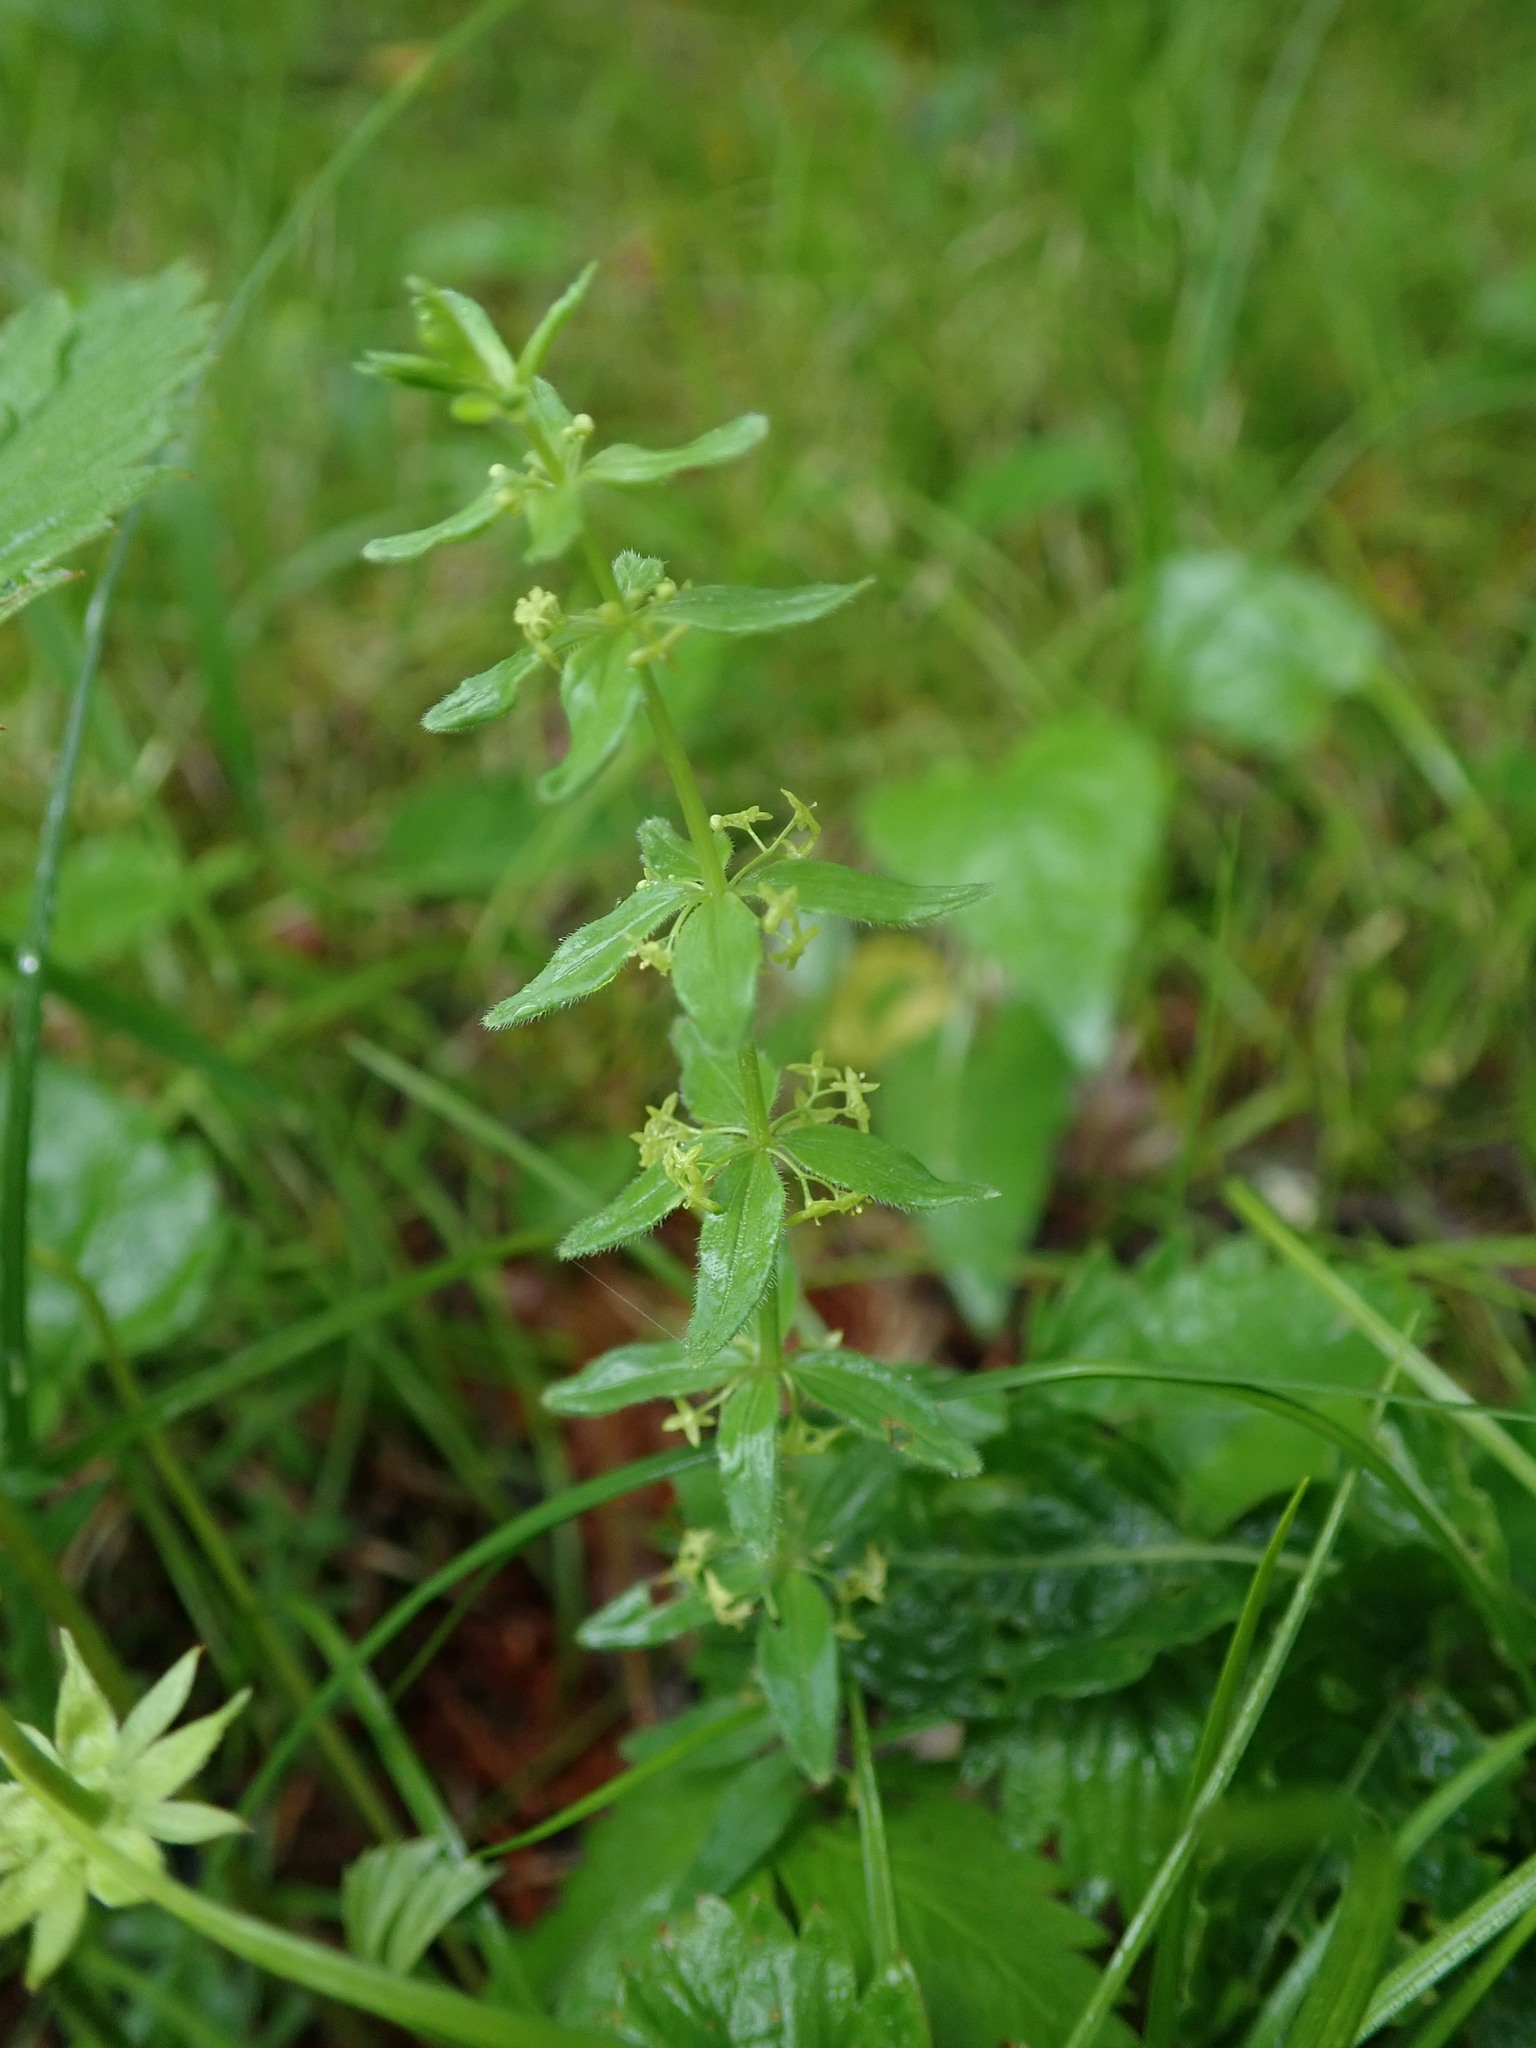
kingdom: Plantae
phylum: Tracheophyta
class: Magnoliopsida
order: Gentianales
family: Rubiaceae
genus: Cruciata
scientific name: Cruciata glabra
